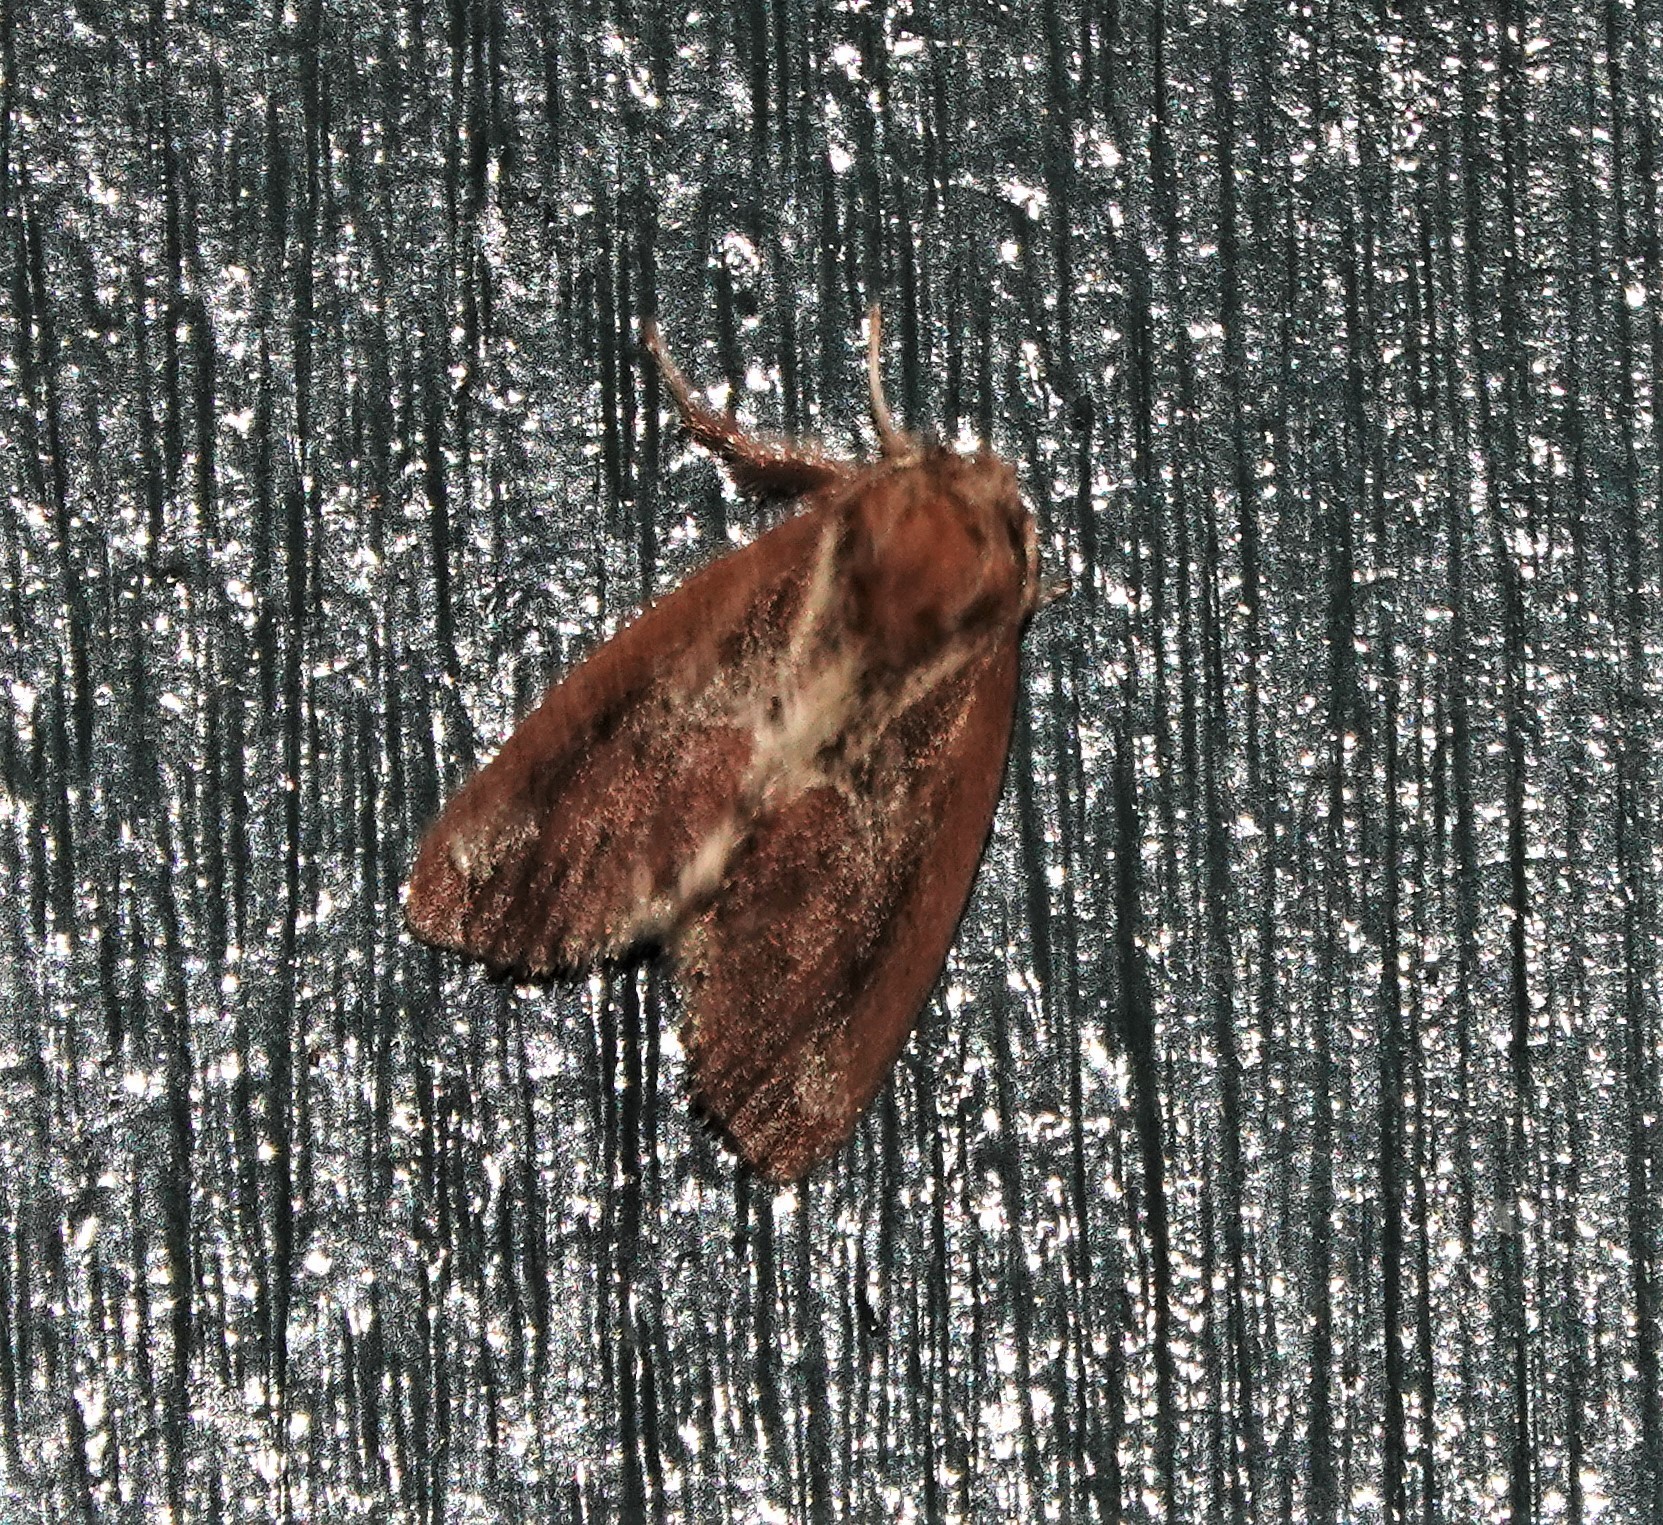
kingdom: Animalia
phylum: Arthropoda
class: Insecta
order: Lepidoptera
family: Limacodidae
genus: Adoneta
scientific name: Adoneta spinuloides
